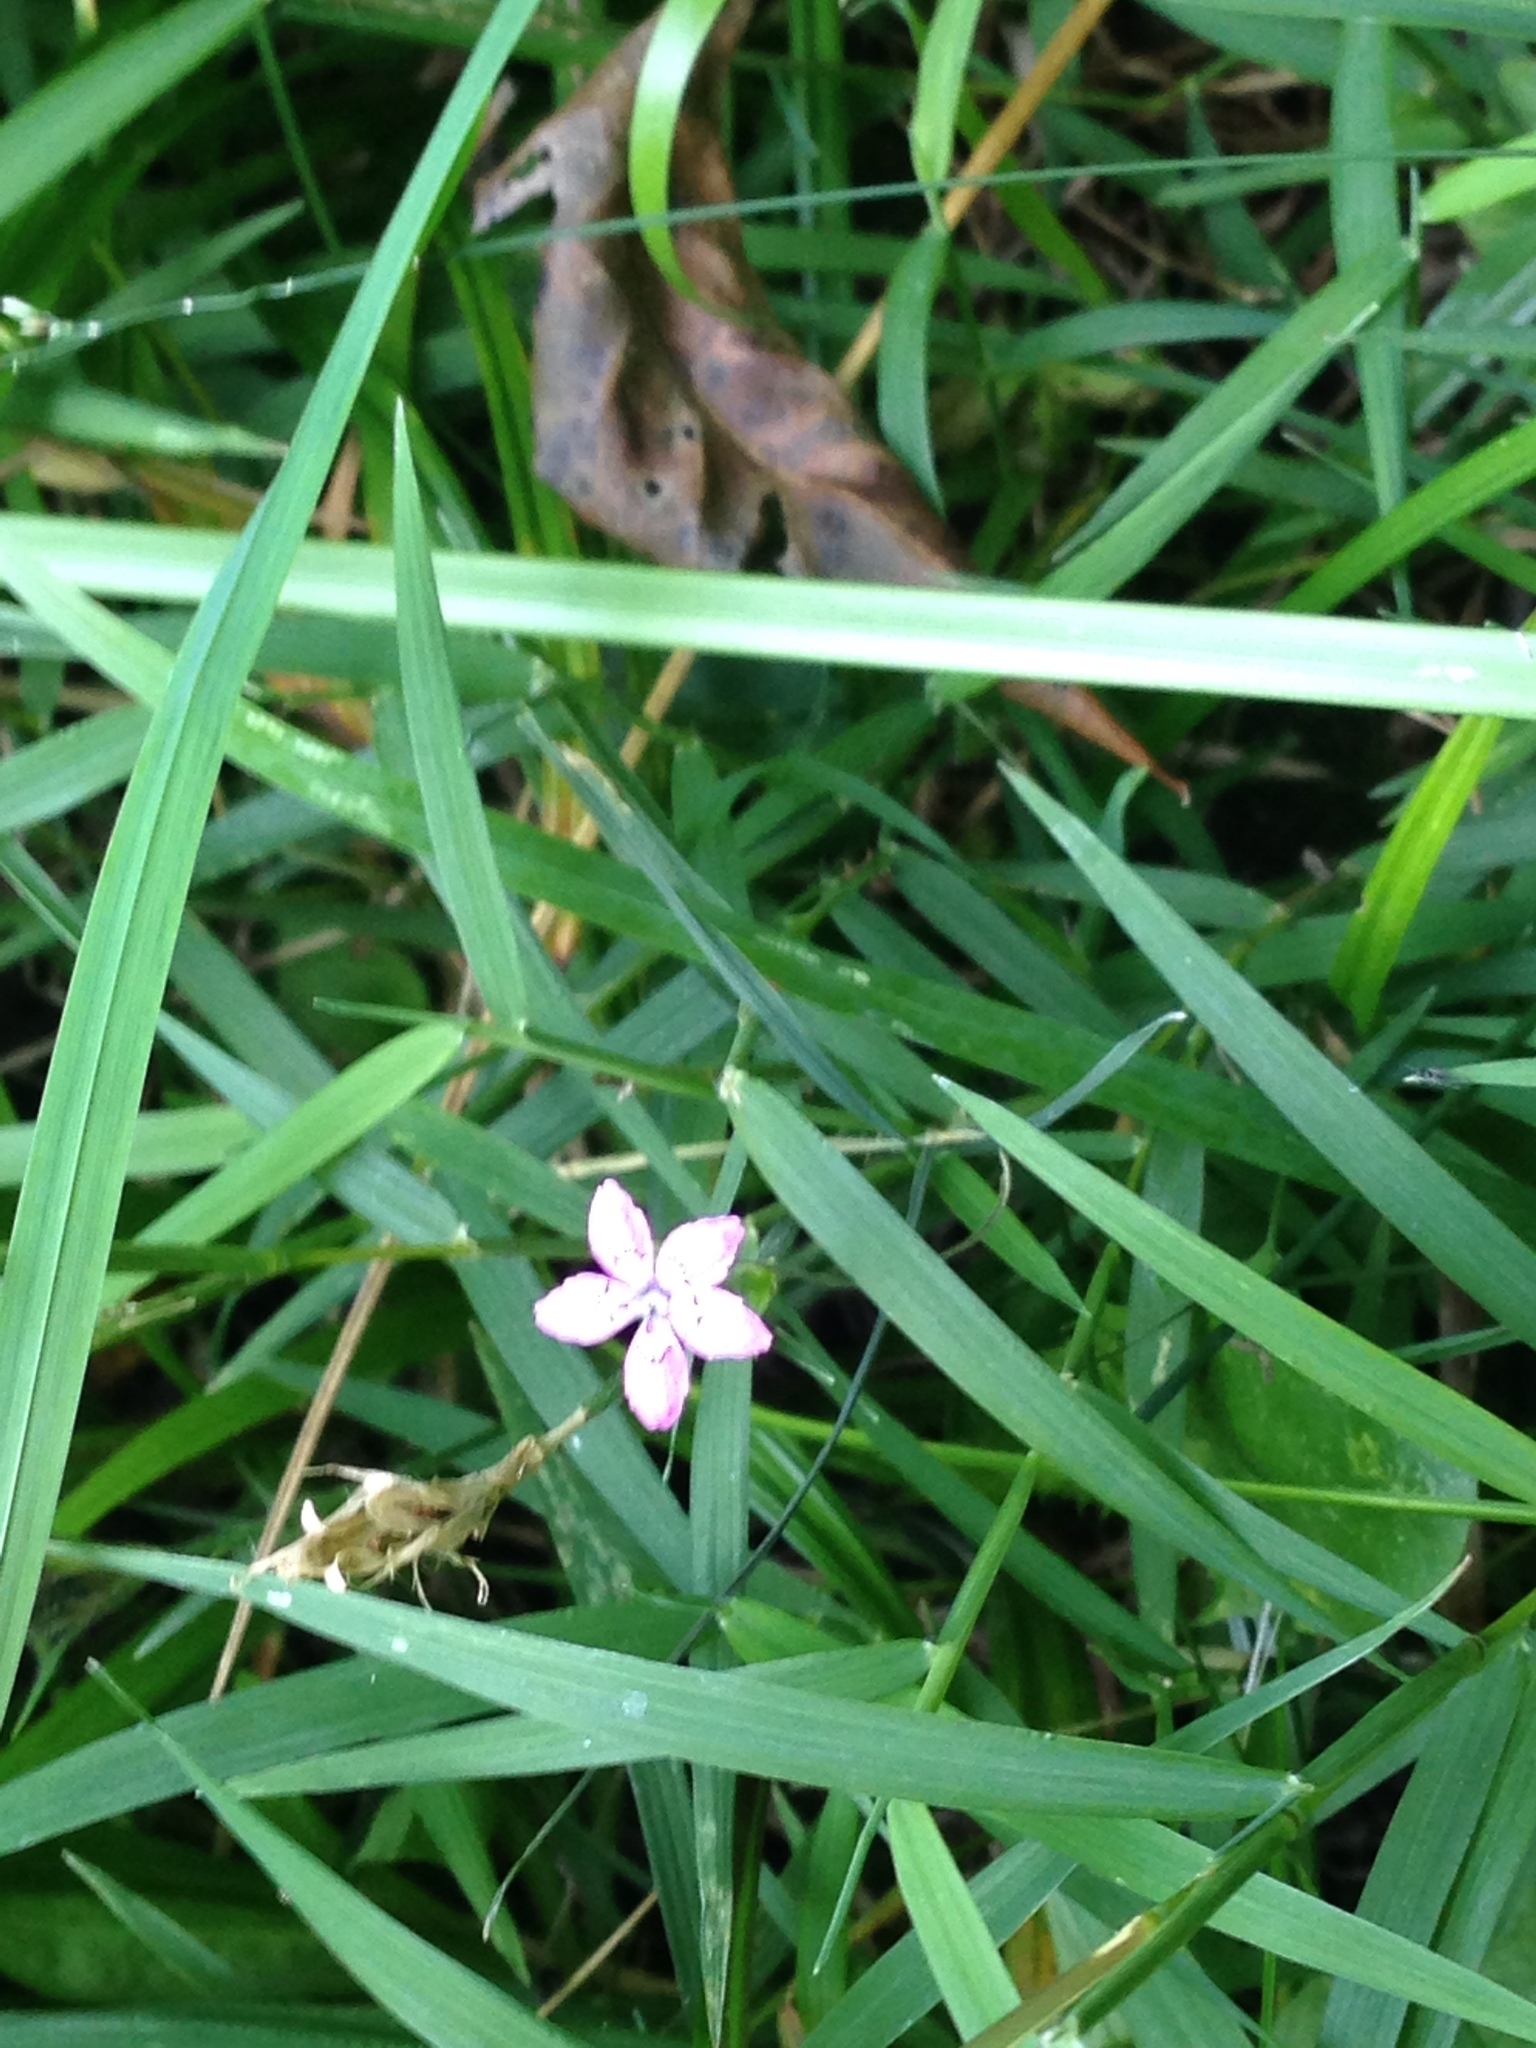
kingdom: Plantae
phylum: Tracheophyta
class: Magnoliopsida
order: Caryophyllales
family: Caryophyllaceae
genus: Dianthus
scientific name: Dianthus armeria
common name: Deptford pink
